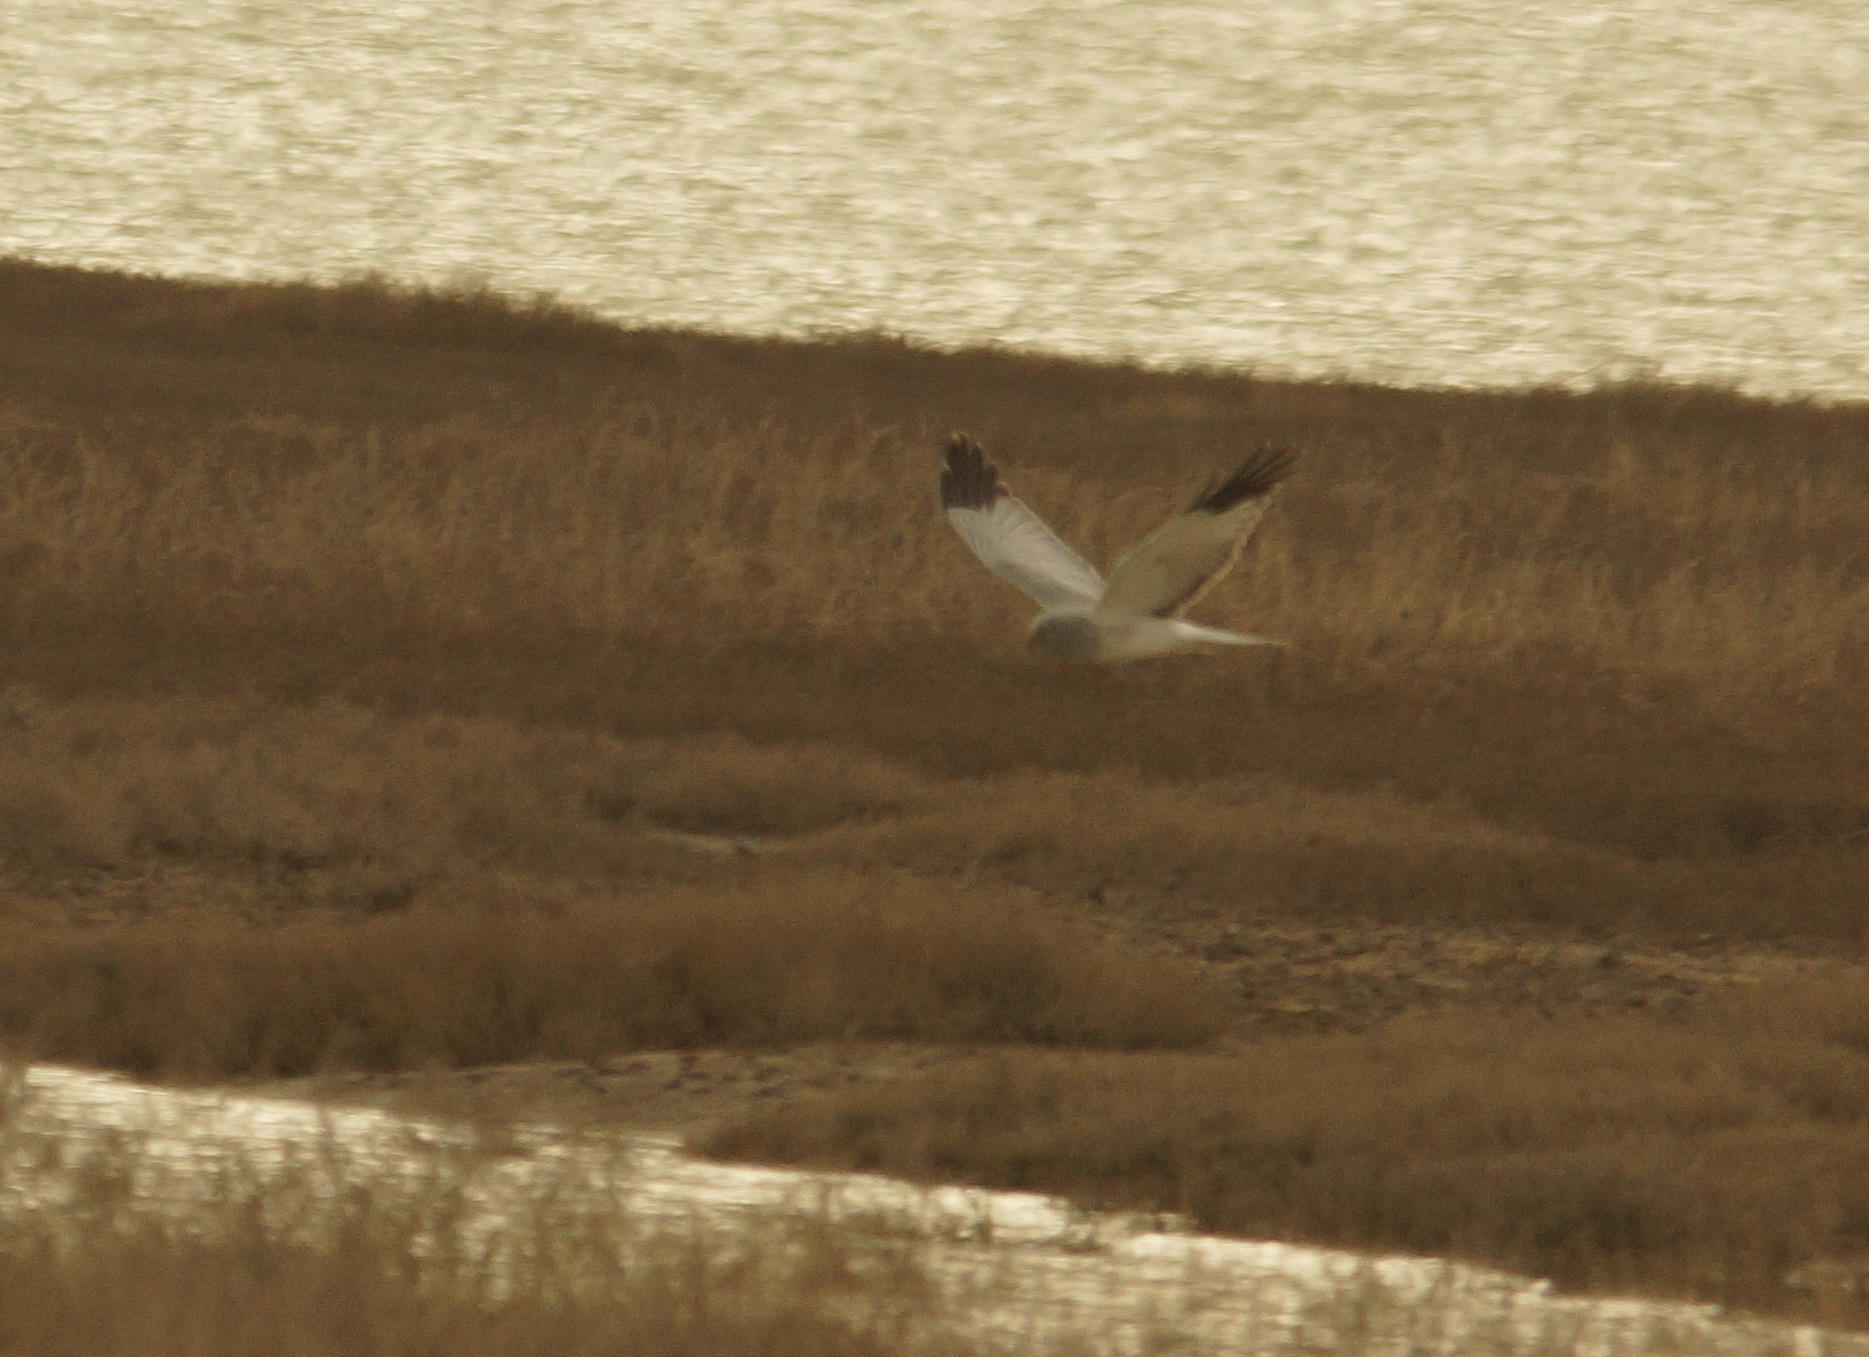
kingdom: Animalia
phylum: Chordata
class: Aves
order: Accipitriformes
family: Accipitridae
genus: Circus
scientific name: Circus cyaneus
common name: Hen harrier
